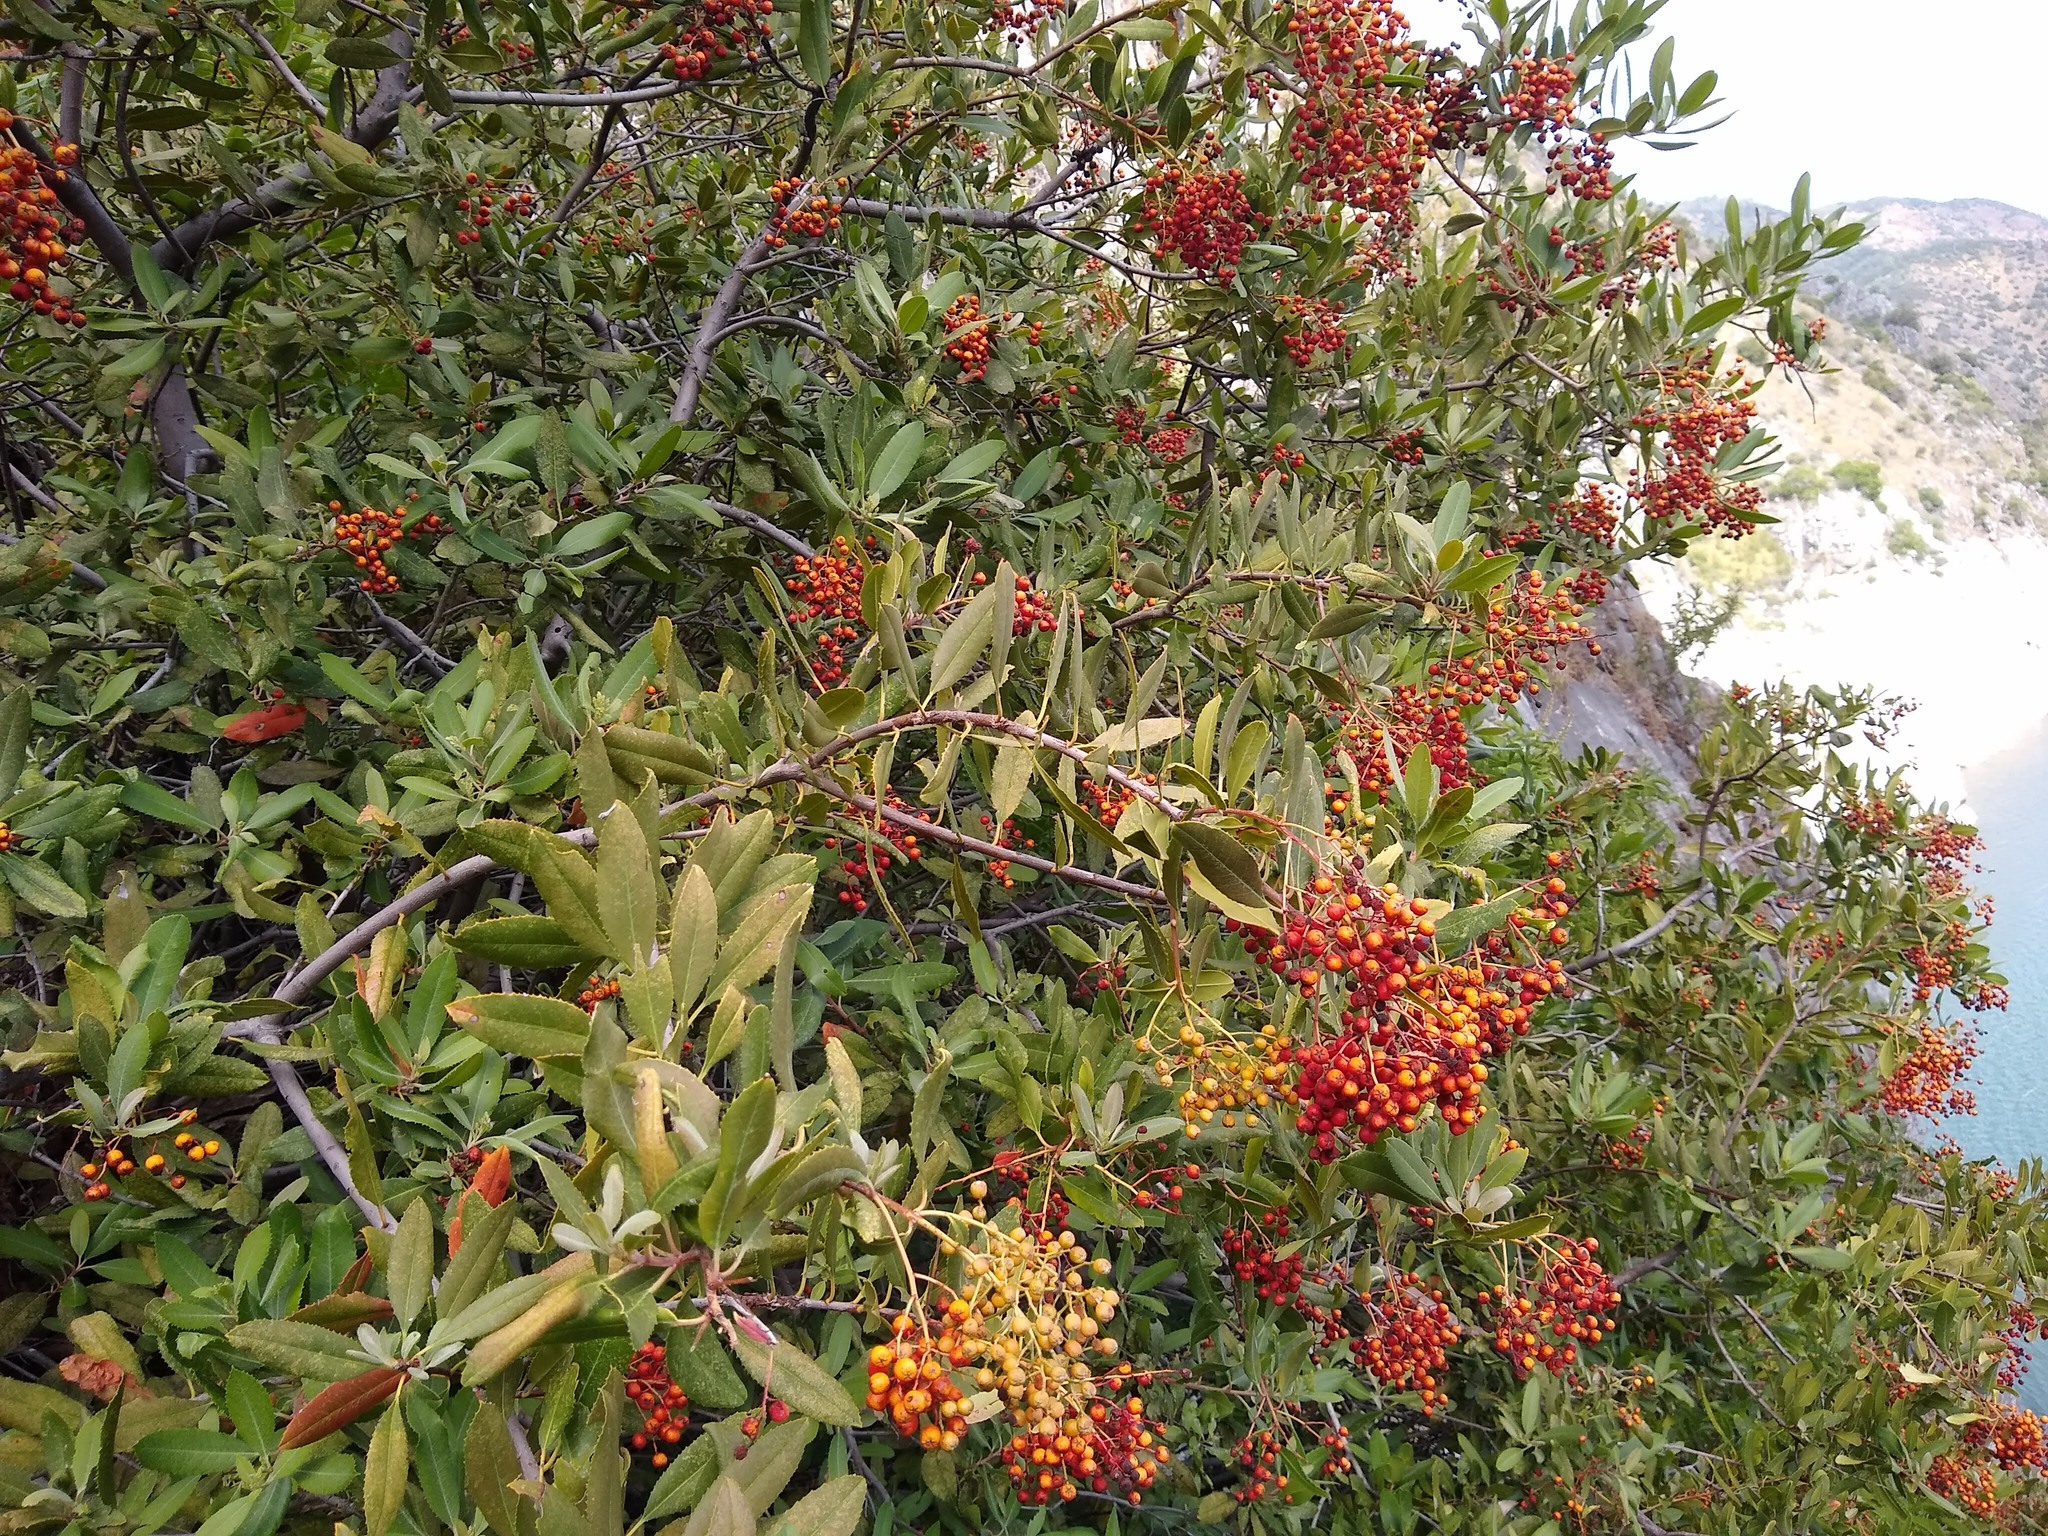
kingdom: Plantae
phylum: Tracheophyta
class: Magnoliopsida
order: Rosales
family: Rosaceae
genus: Heteromeles
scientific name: Heteromeles arbutifolia
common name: California-holly
